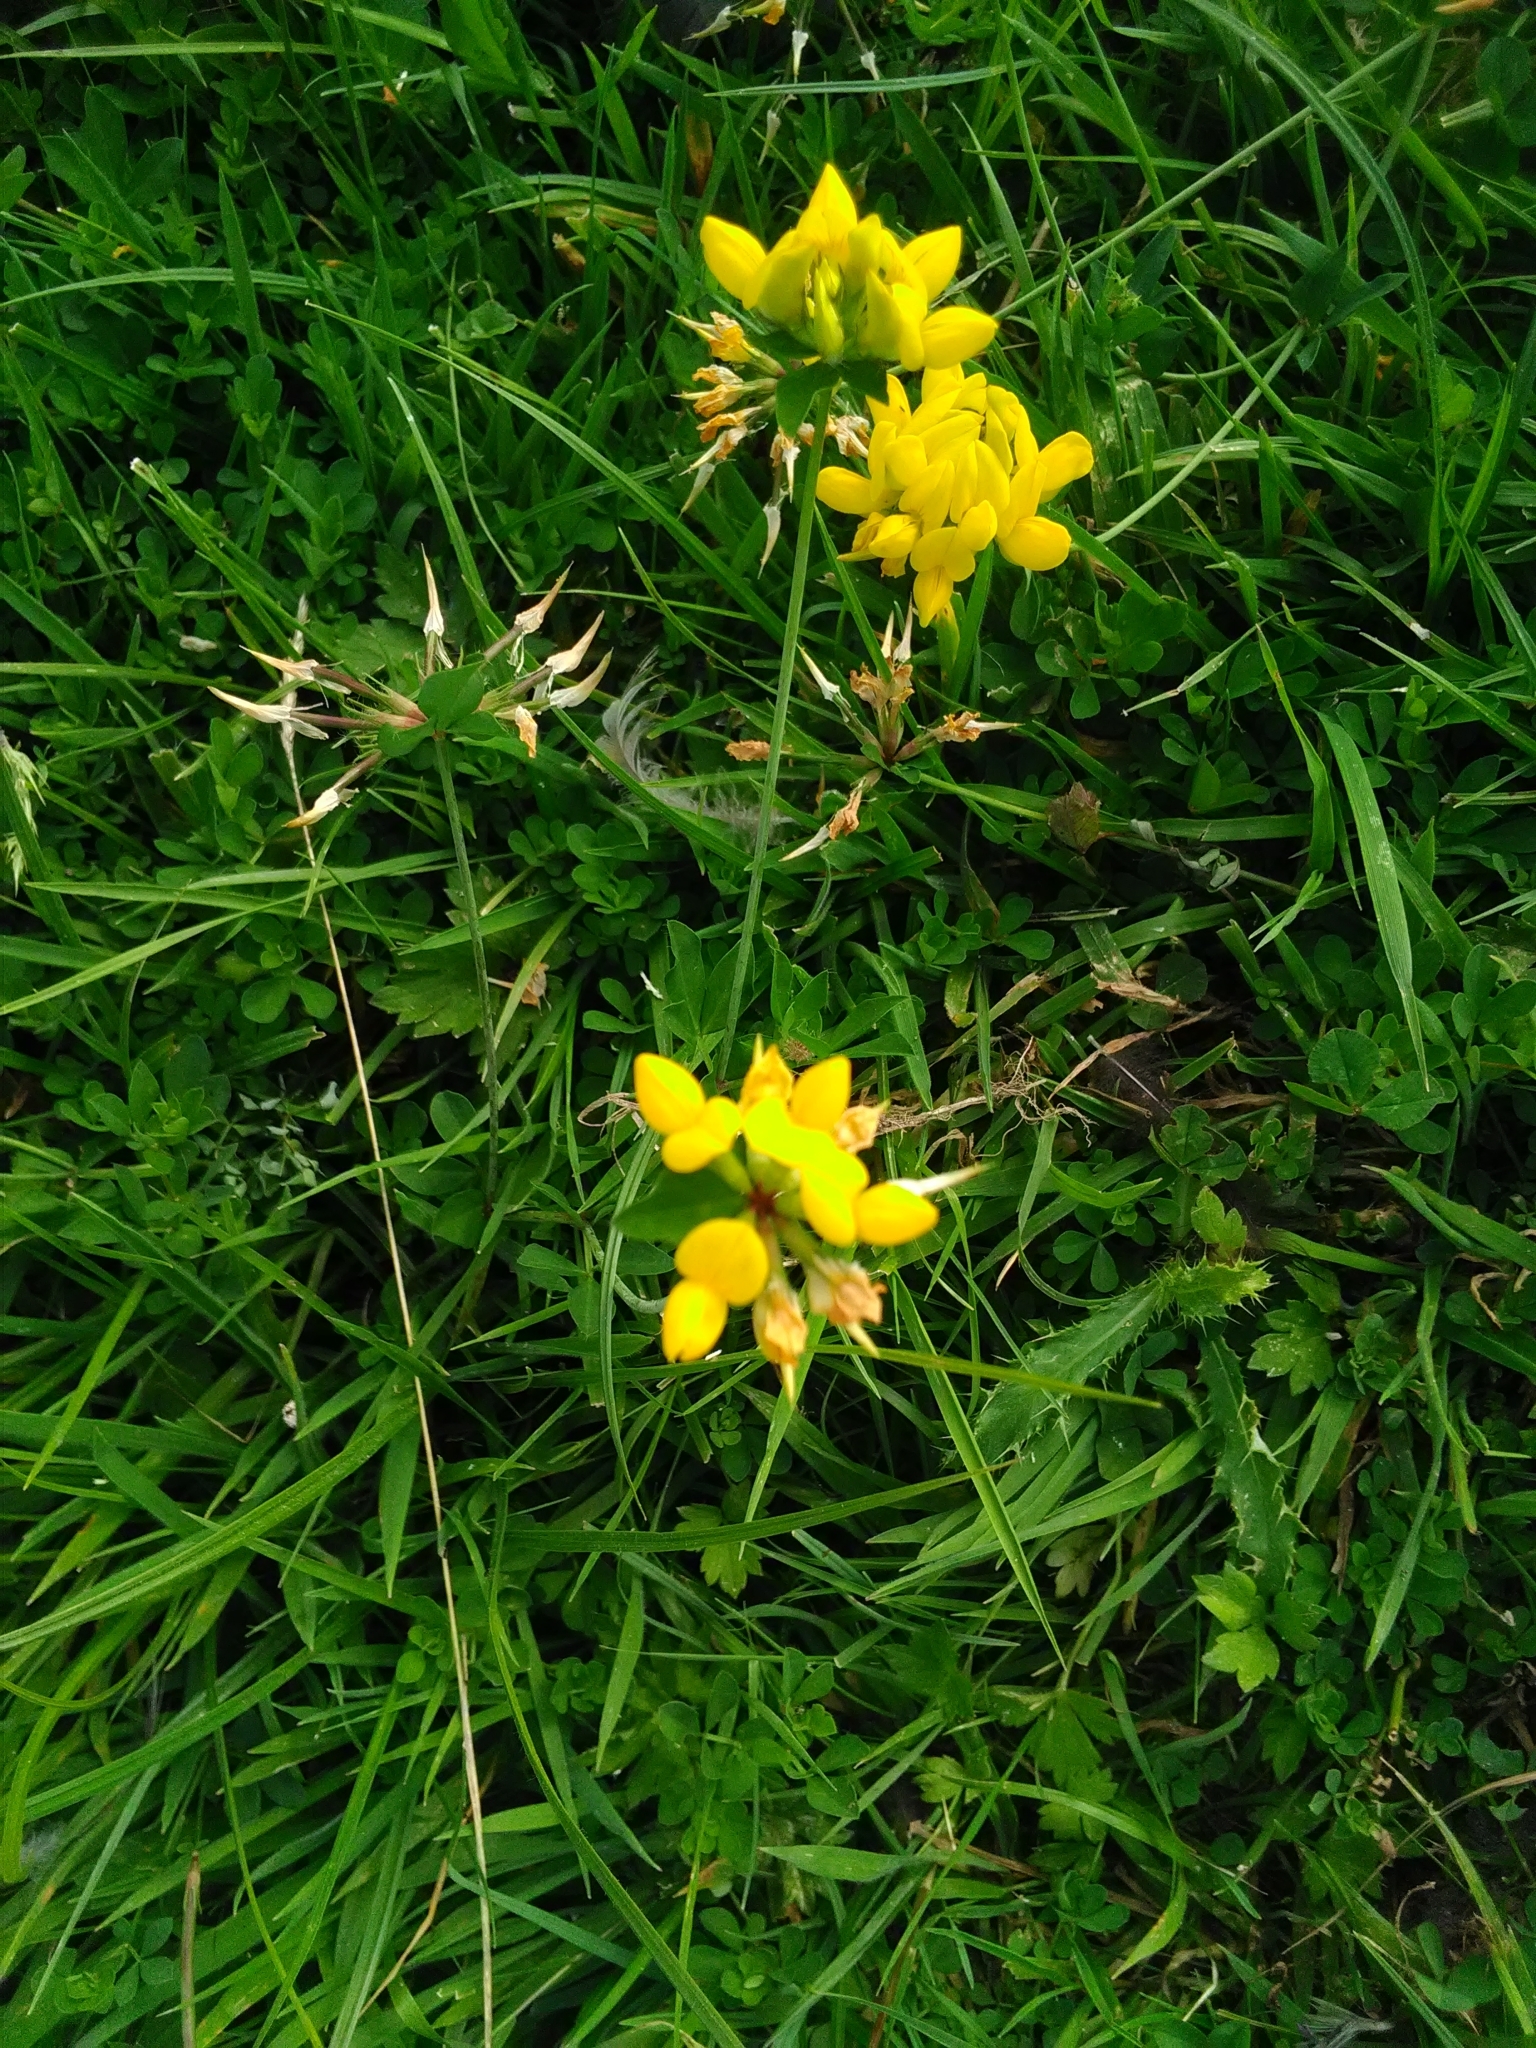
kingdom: Plantae
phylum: Tracheophyta
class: Magnoliopsida
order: Fabales
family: Fabaceae
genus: Lotus
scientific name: Lotus pedunculatus
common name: Greater birdsfoot-trefoil
